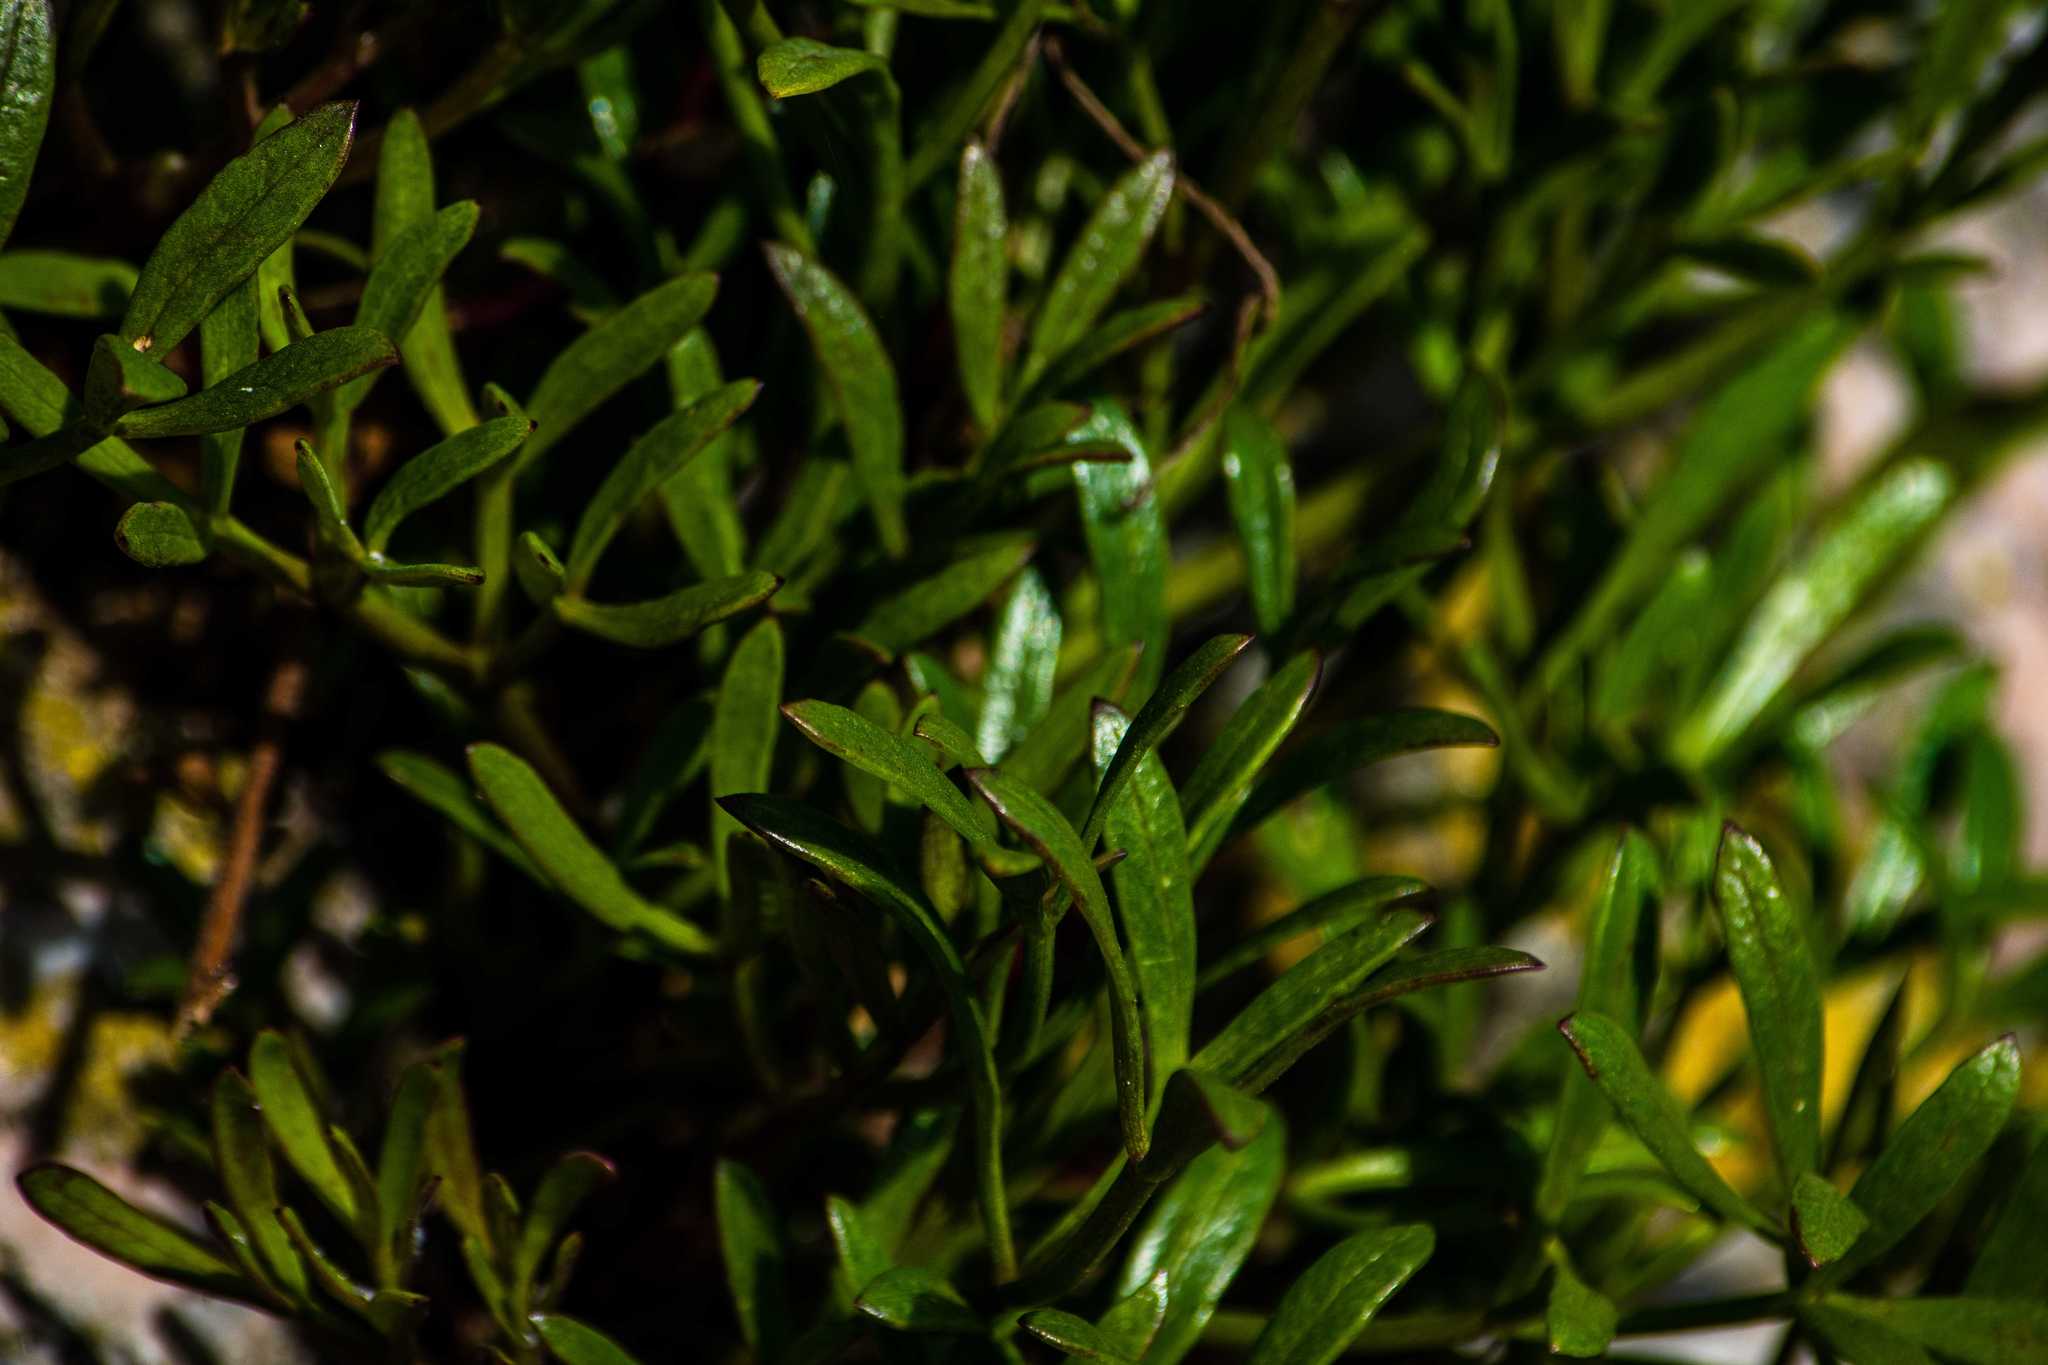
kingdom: Plantae
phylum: Tracheophyta
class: Magnoliopsida
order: Apiales
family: Apiaceae
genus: Crithmum
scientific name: Crithmum maritimum
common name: Rock samphire
